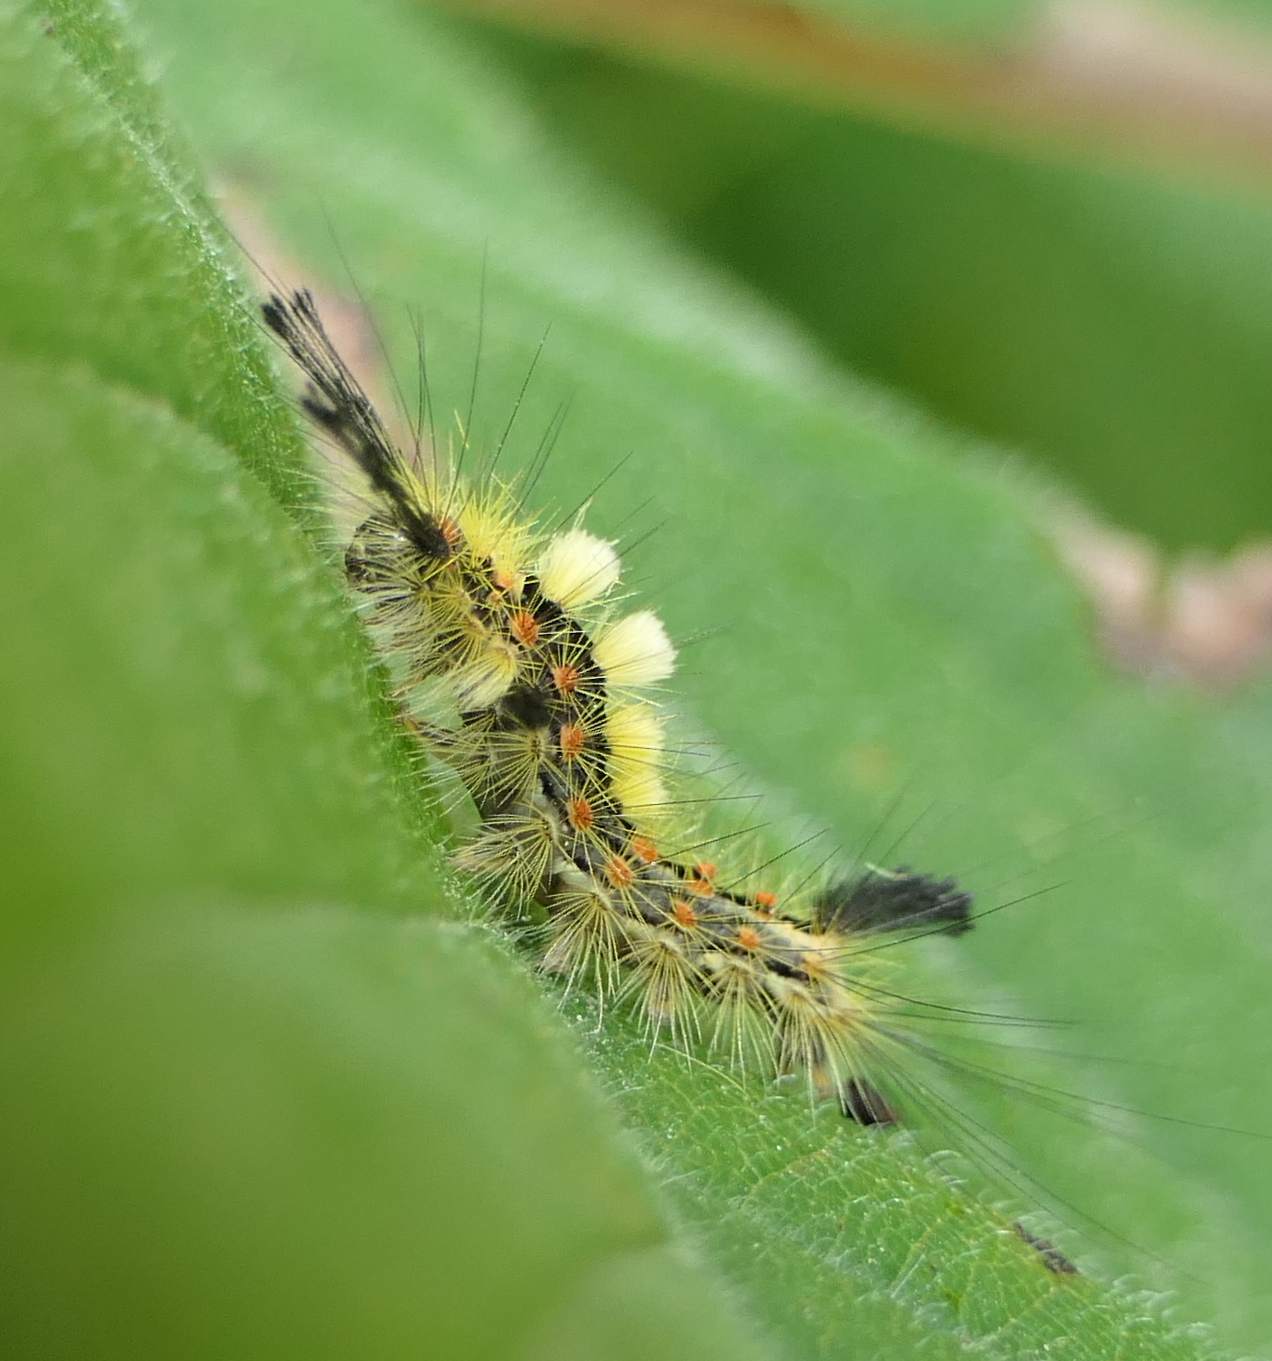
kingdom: Animalia
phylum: Arthropoda
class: Insecta
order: Lepidoptera
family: Erebidae
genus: Orgyia
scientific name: Orgyia antiqua
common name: Vapourer
